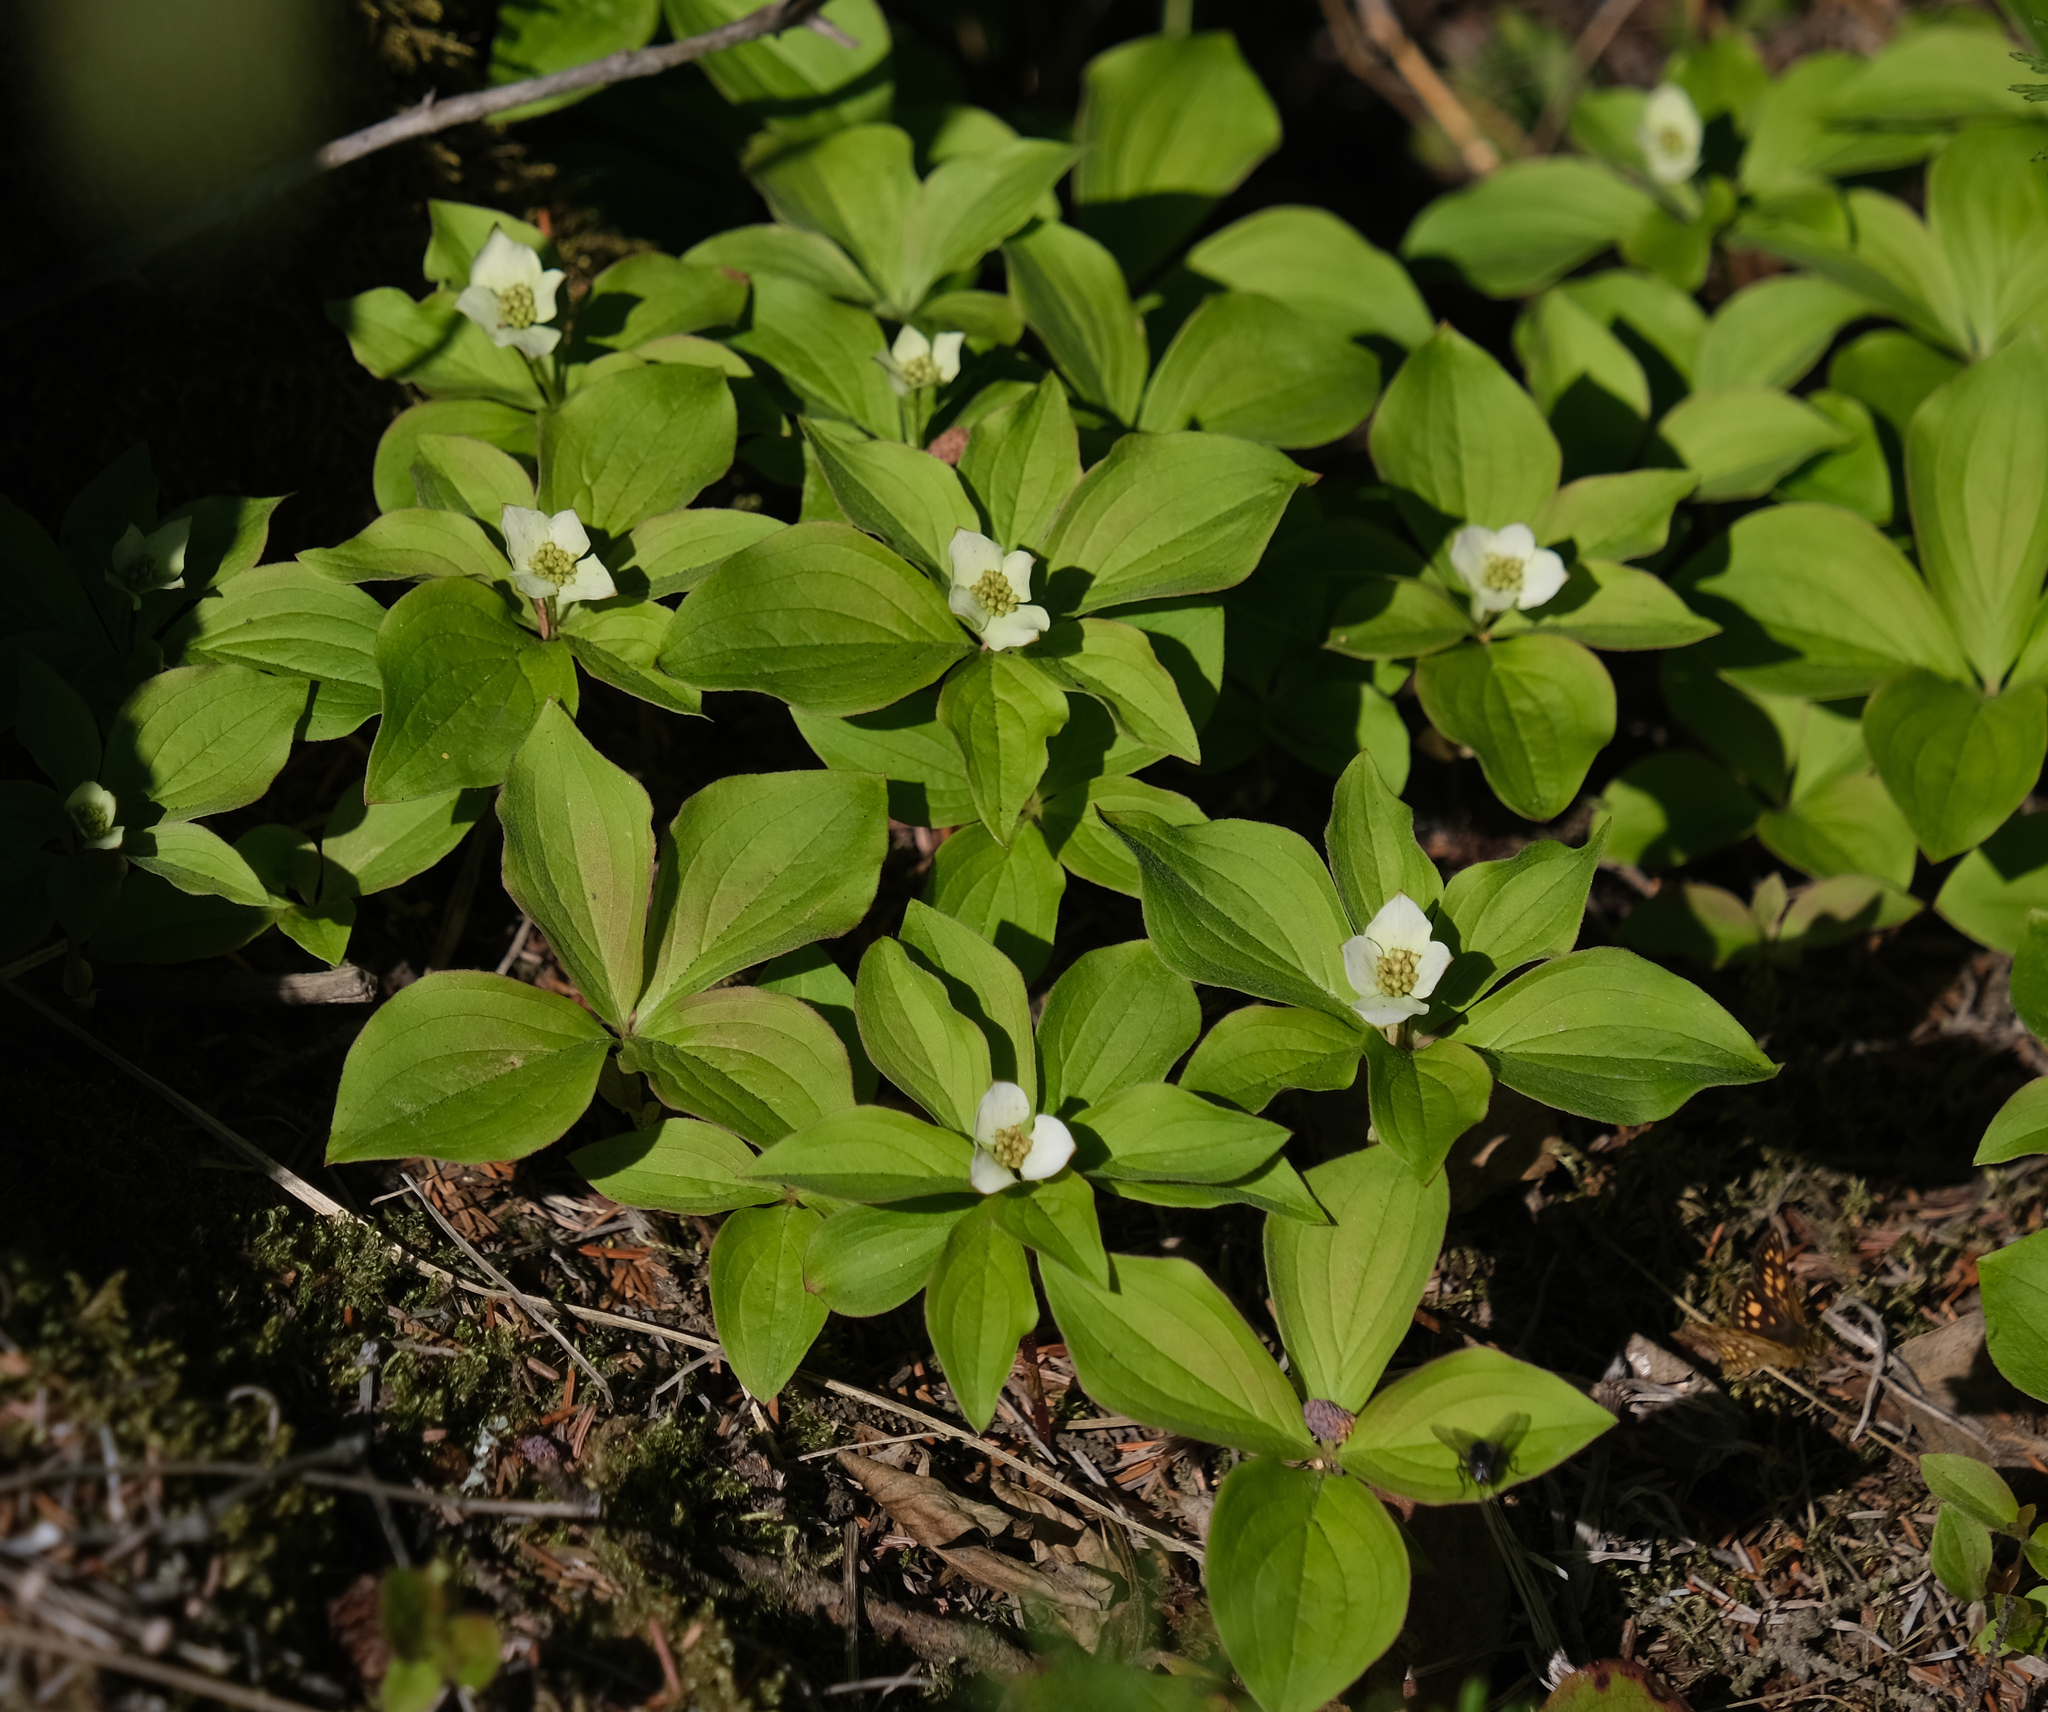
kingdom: Plantae
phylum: Tracheophyta
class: Magnoliopsida
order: Cornales
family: Cornaceae
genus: Cornus
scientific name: Cornus canadensis
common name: Creeping dogwood
